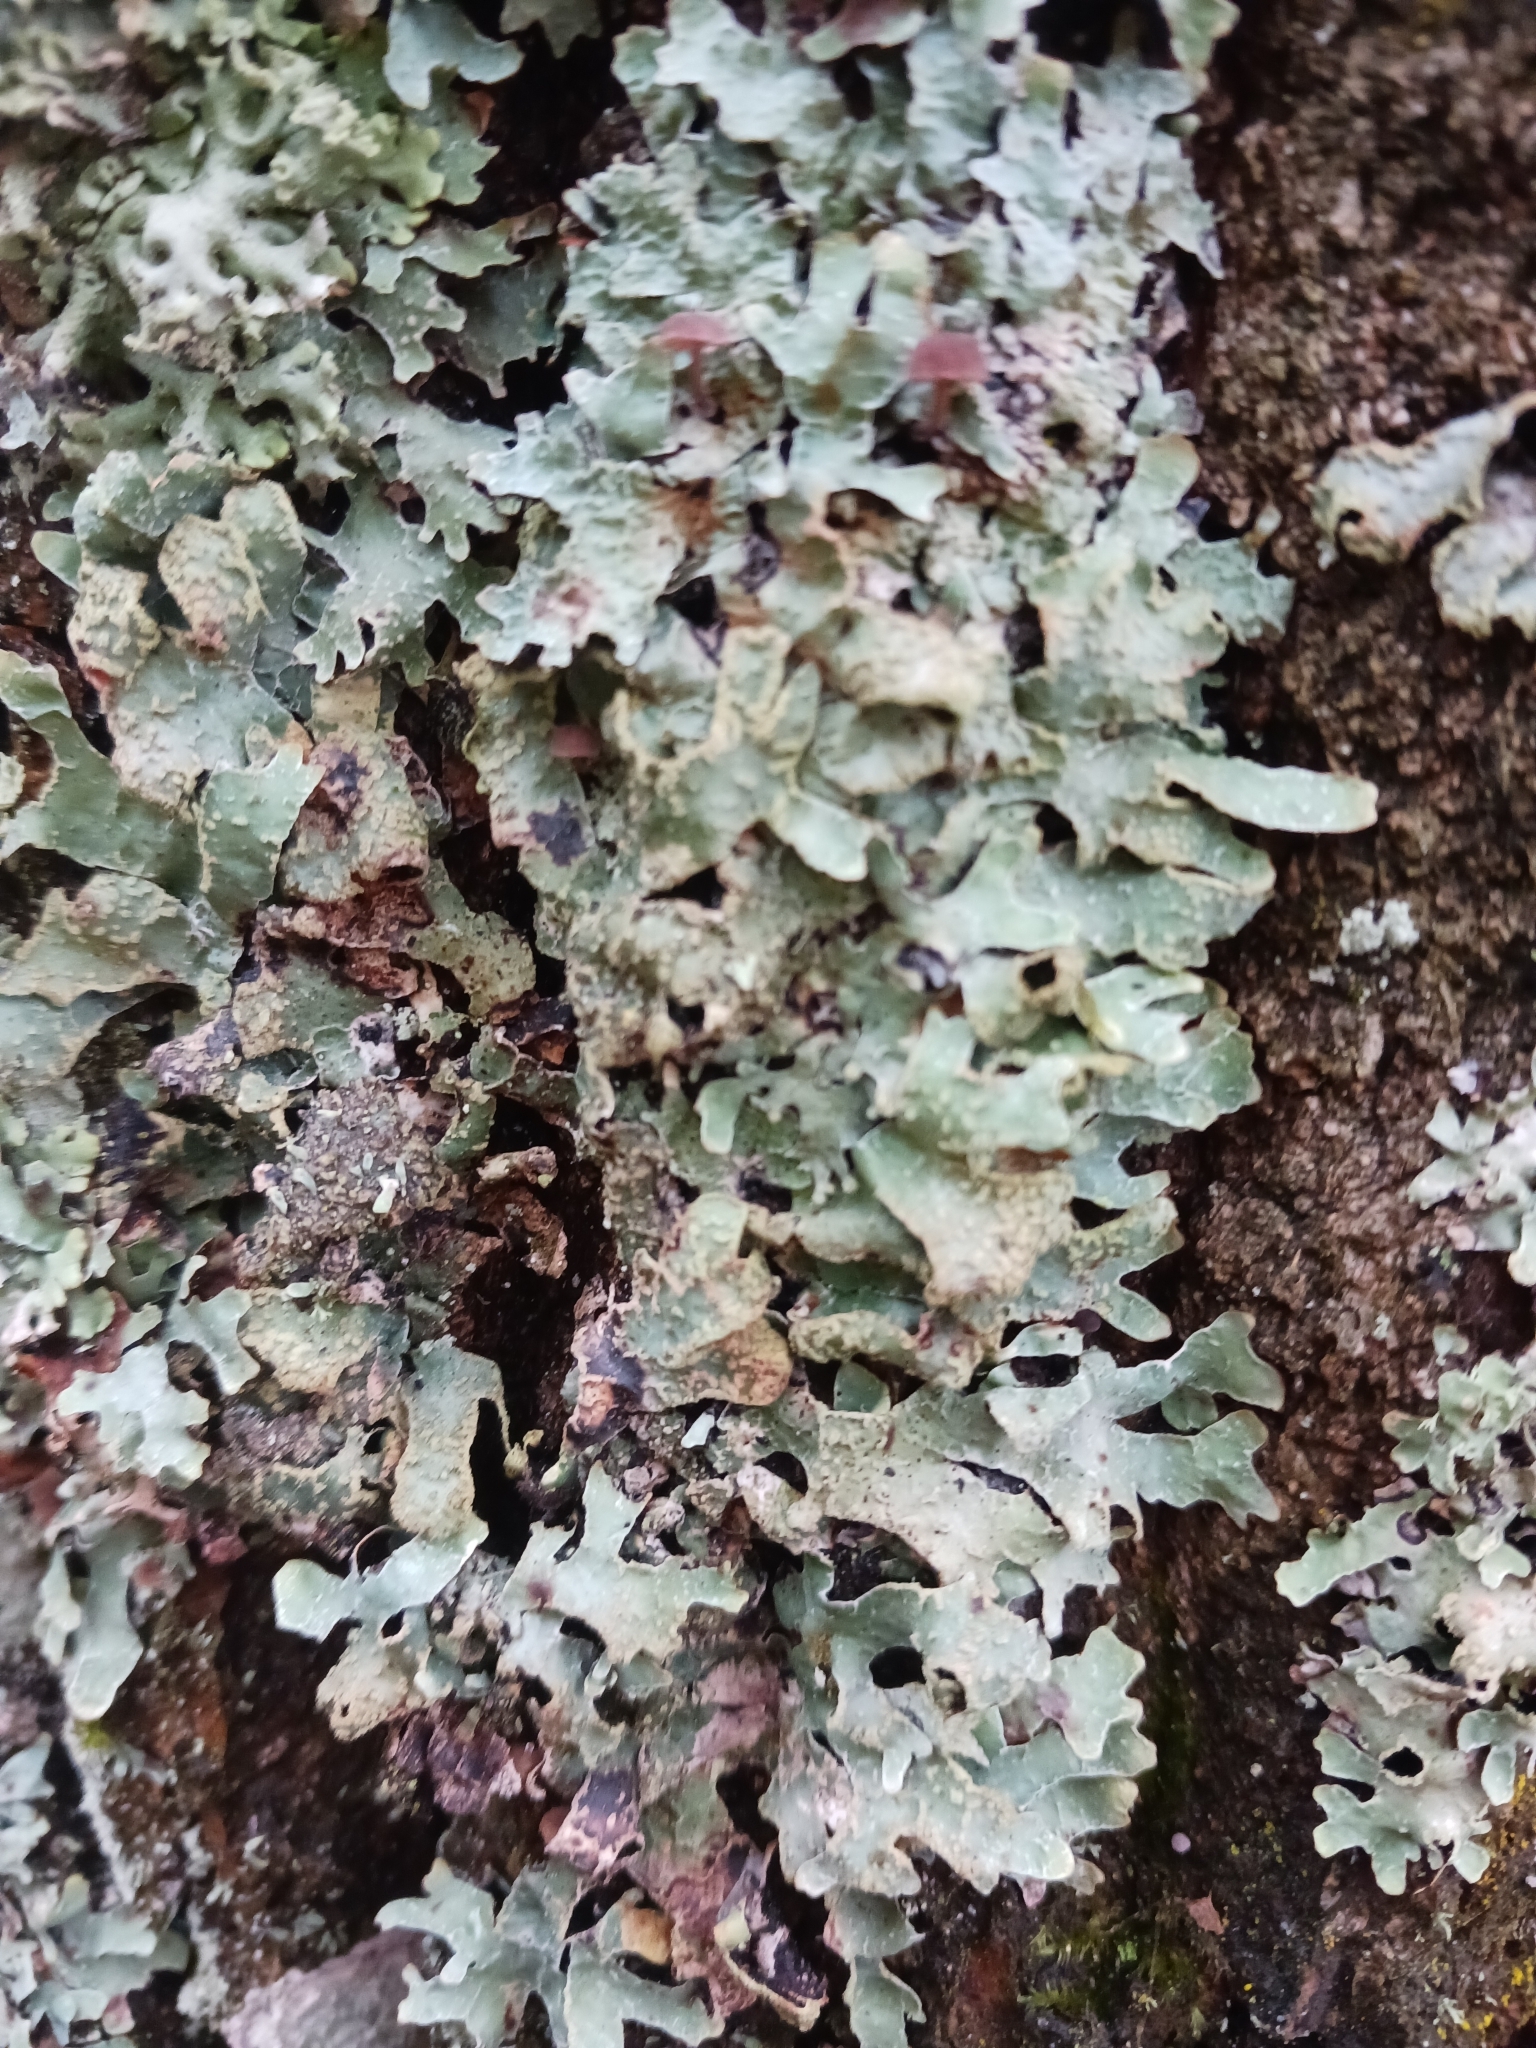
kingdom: Fungi
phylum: Ascomycota
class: Lecanoromycetes
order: Lecanorales
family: Parmeliaceae
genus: Parmelia
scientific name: Parmelia sulcata
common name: Netted shield lichen
